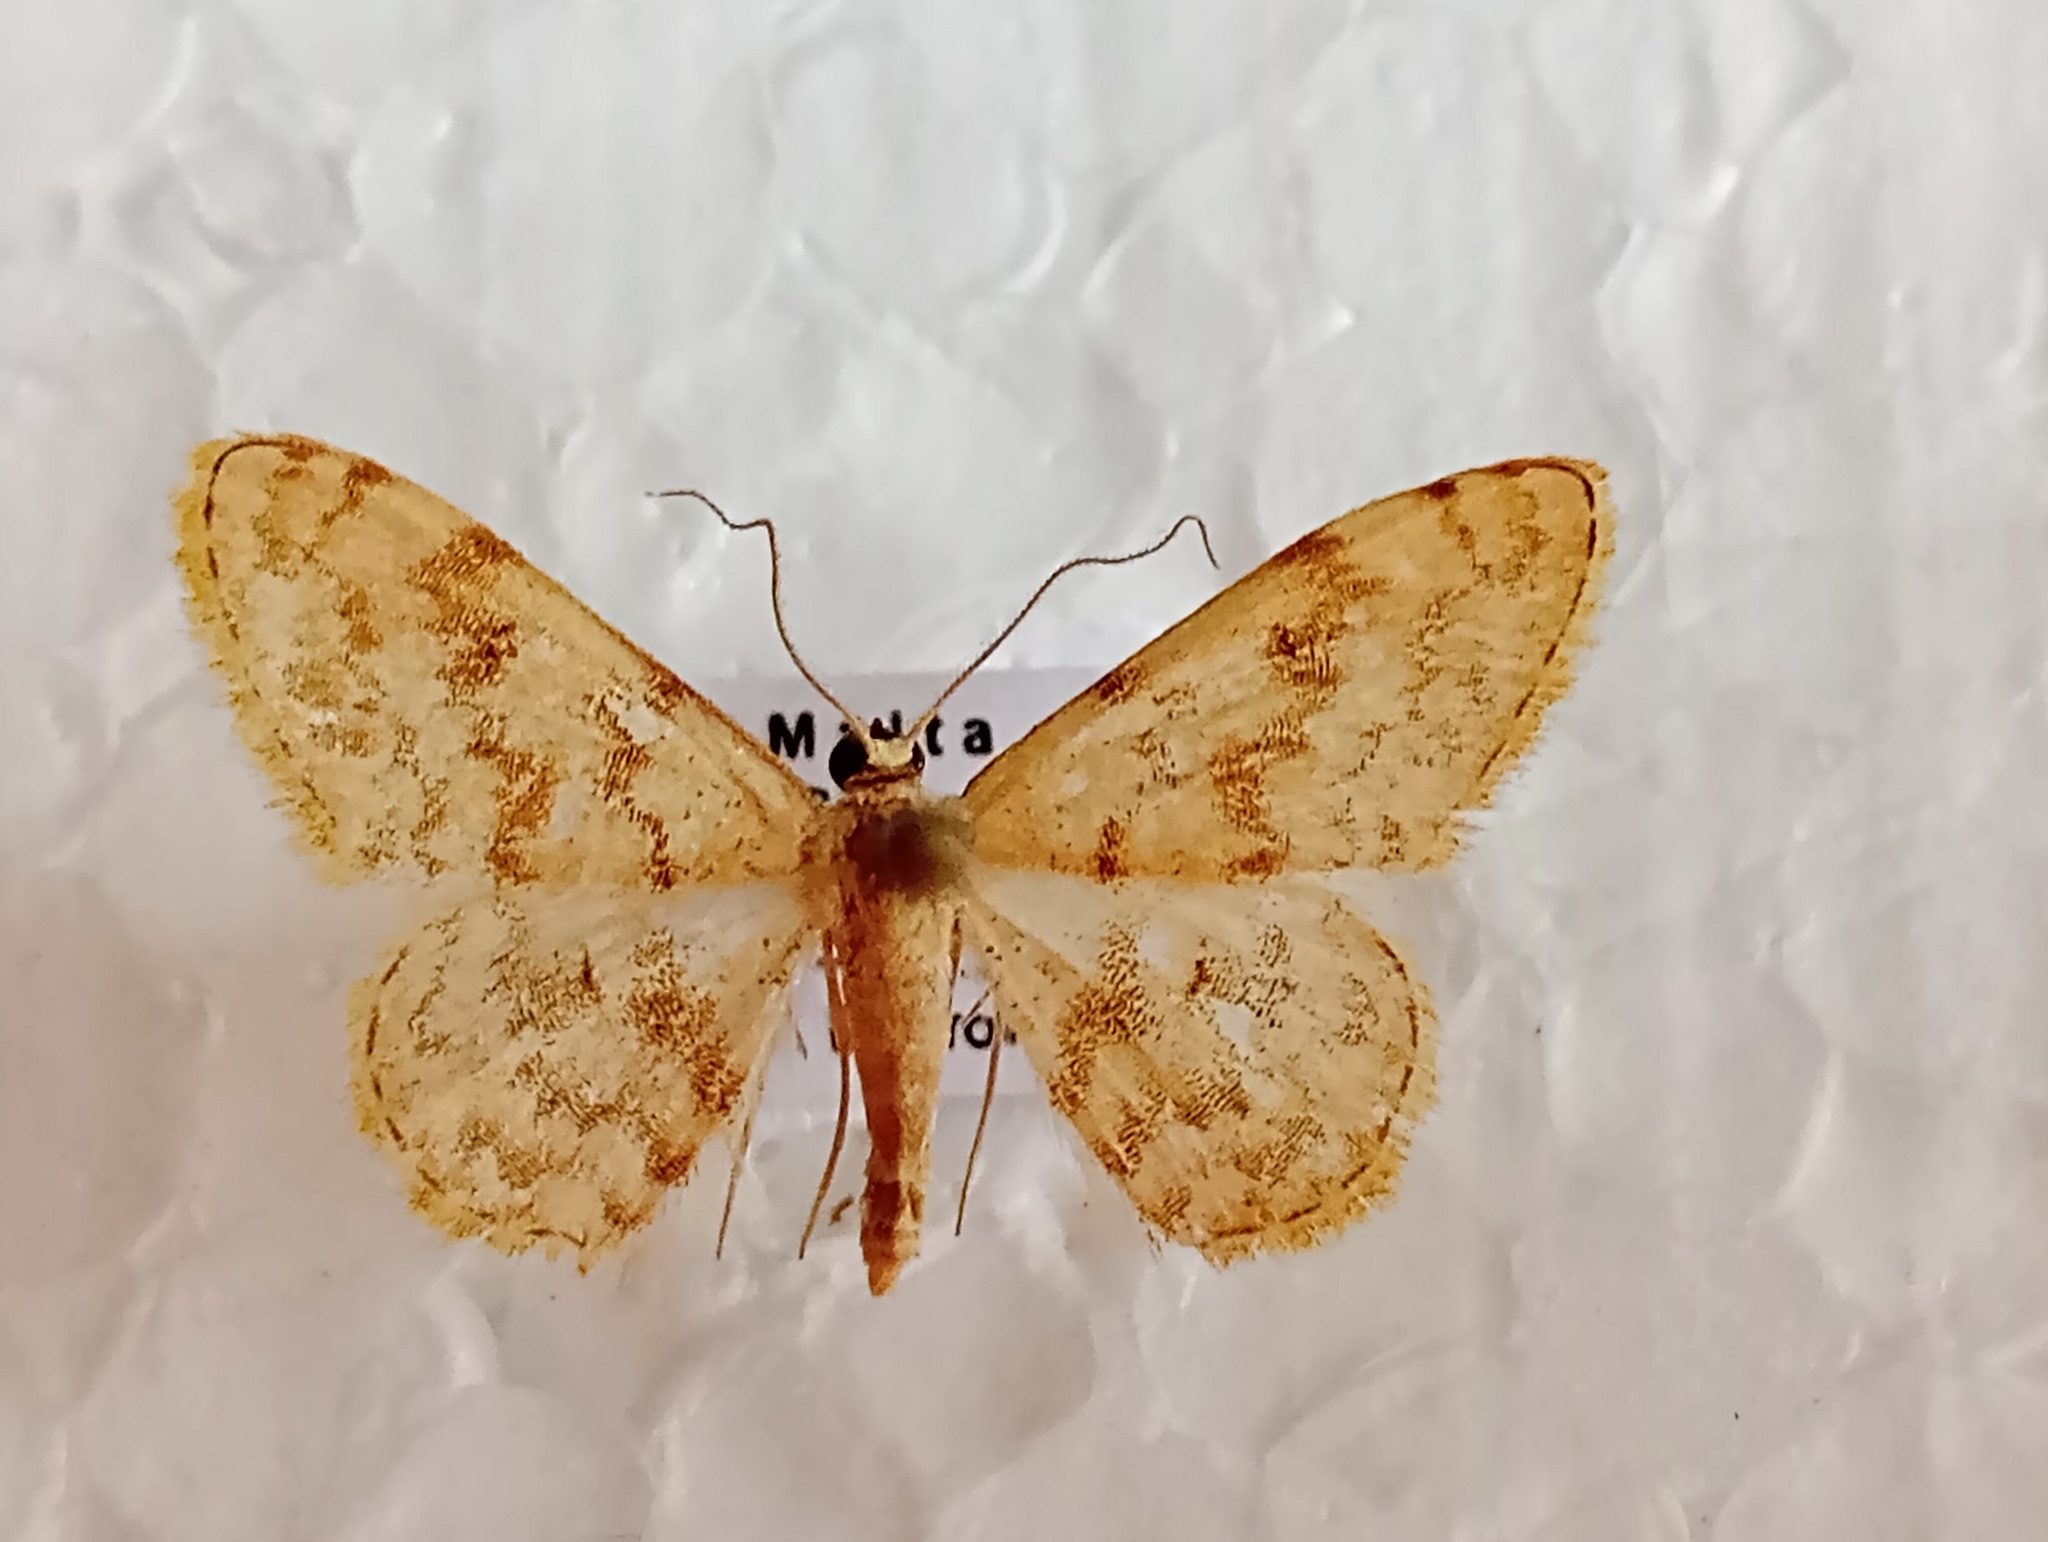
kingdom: Animalia
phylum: Arthropoda
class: Insecta
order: Lepidoptera
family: Geometridae
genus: Glossotrophia
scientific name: Glossotrophia asellaria
